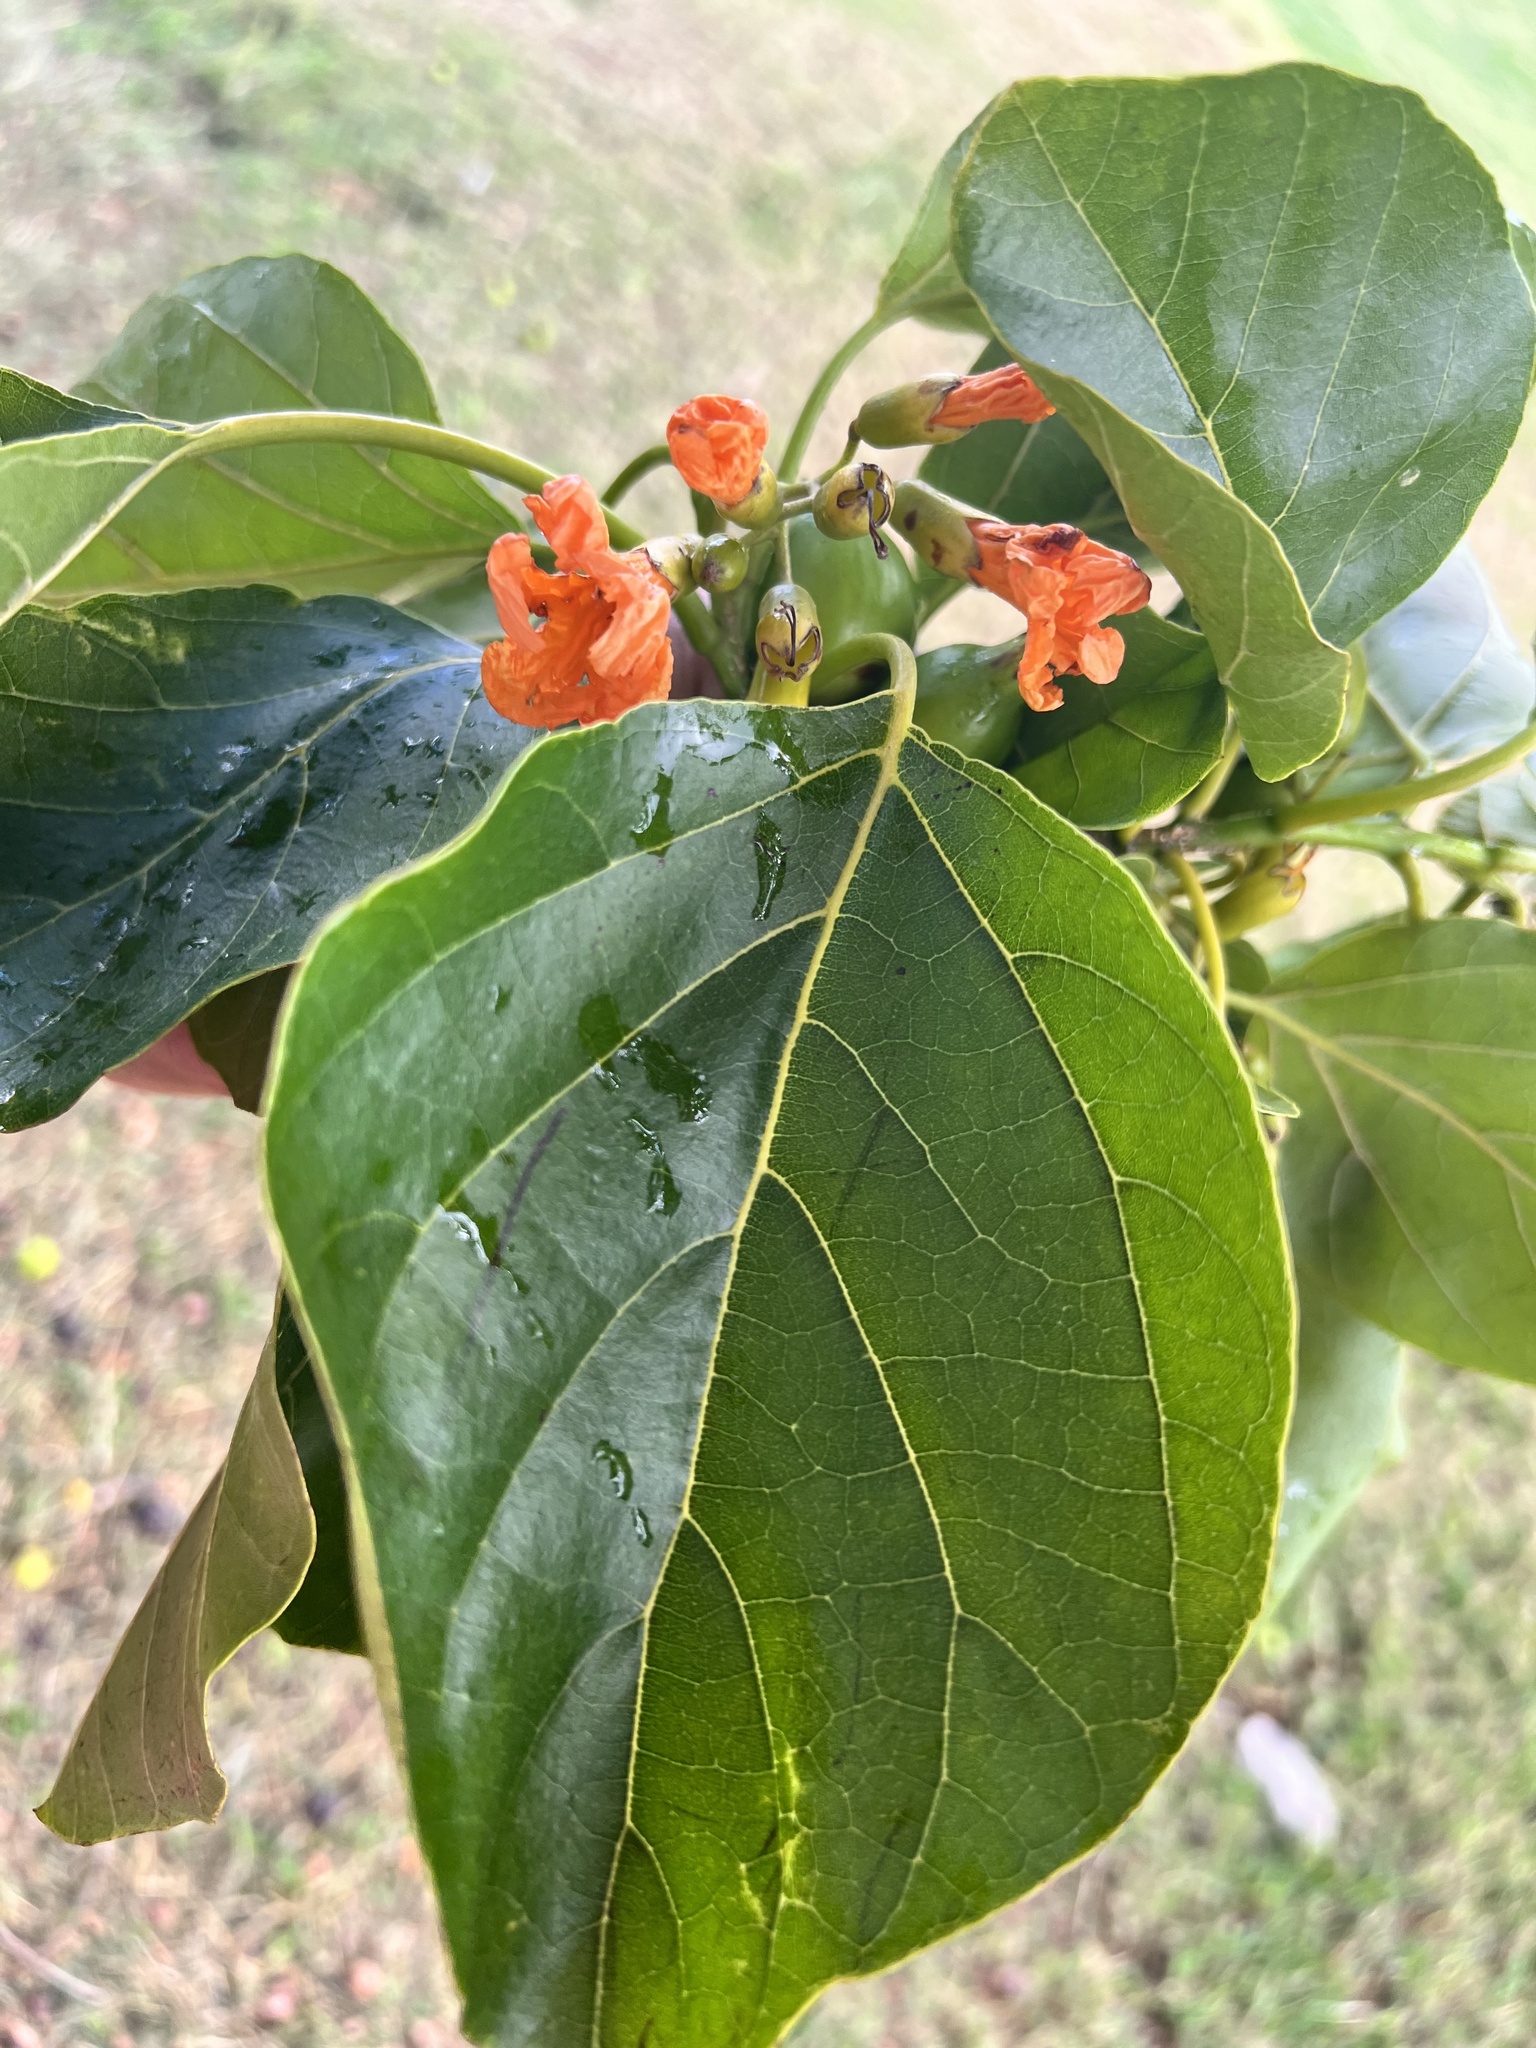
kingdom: Plantae
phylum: Tracheophyta
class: Magnoliopsida
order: Boraginales
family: Cordiaceae
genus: Cordia
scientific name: Cordia subcordata
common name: Mareer
